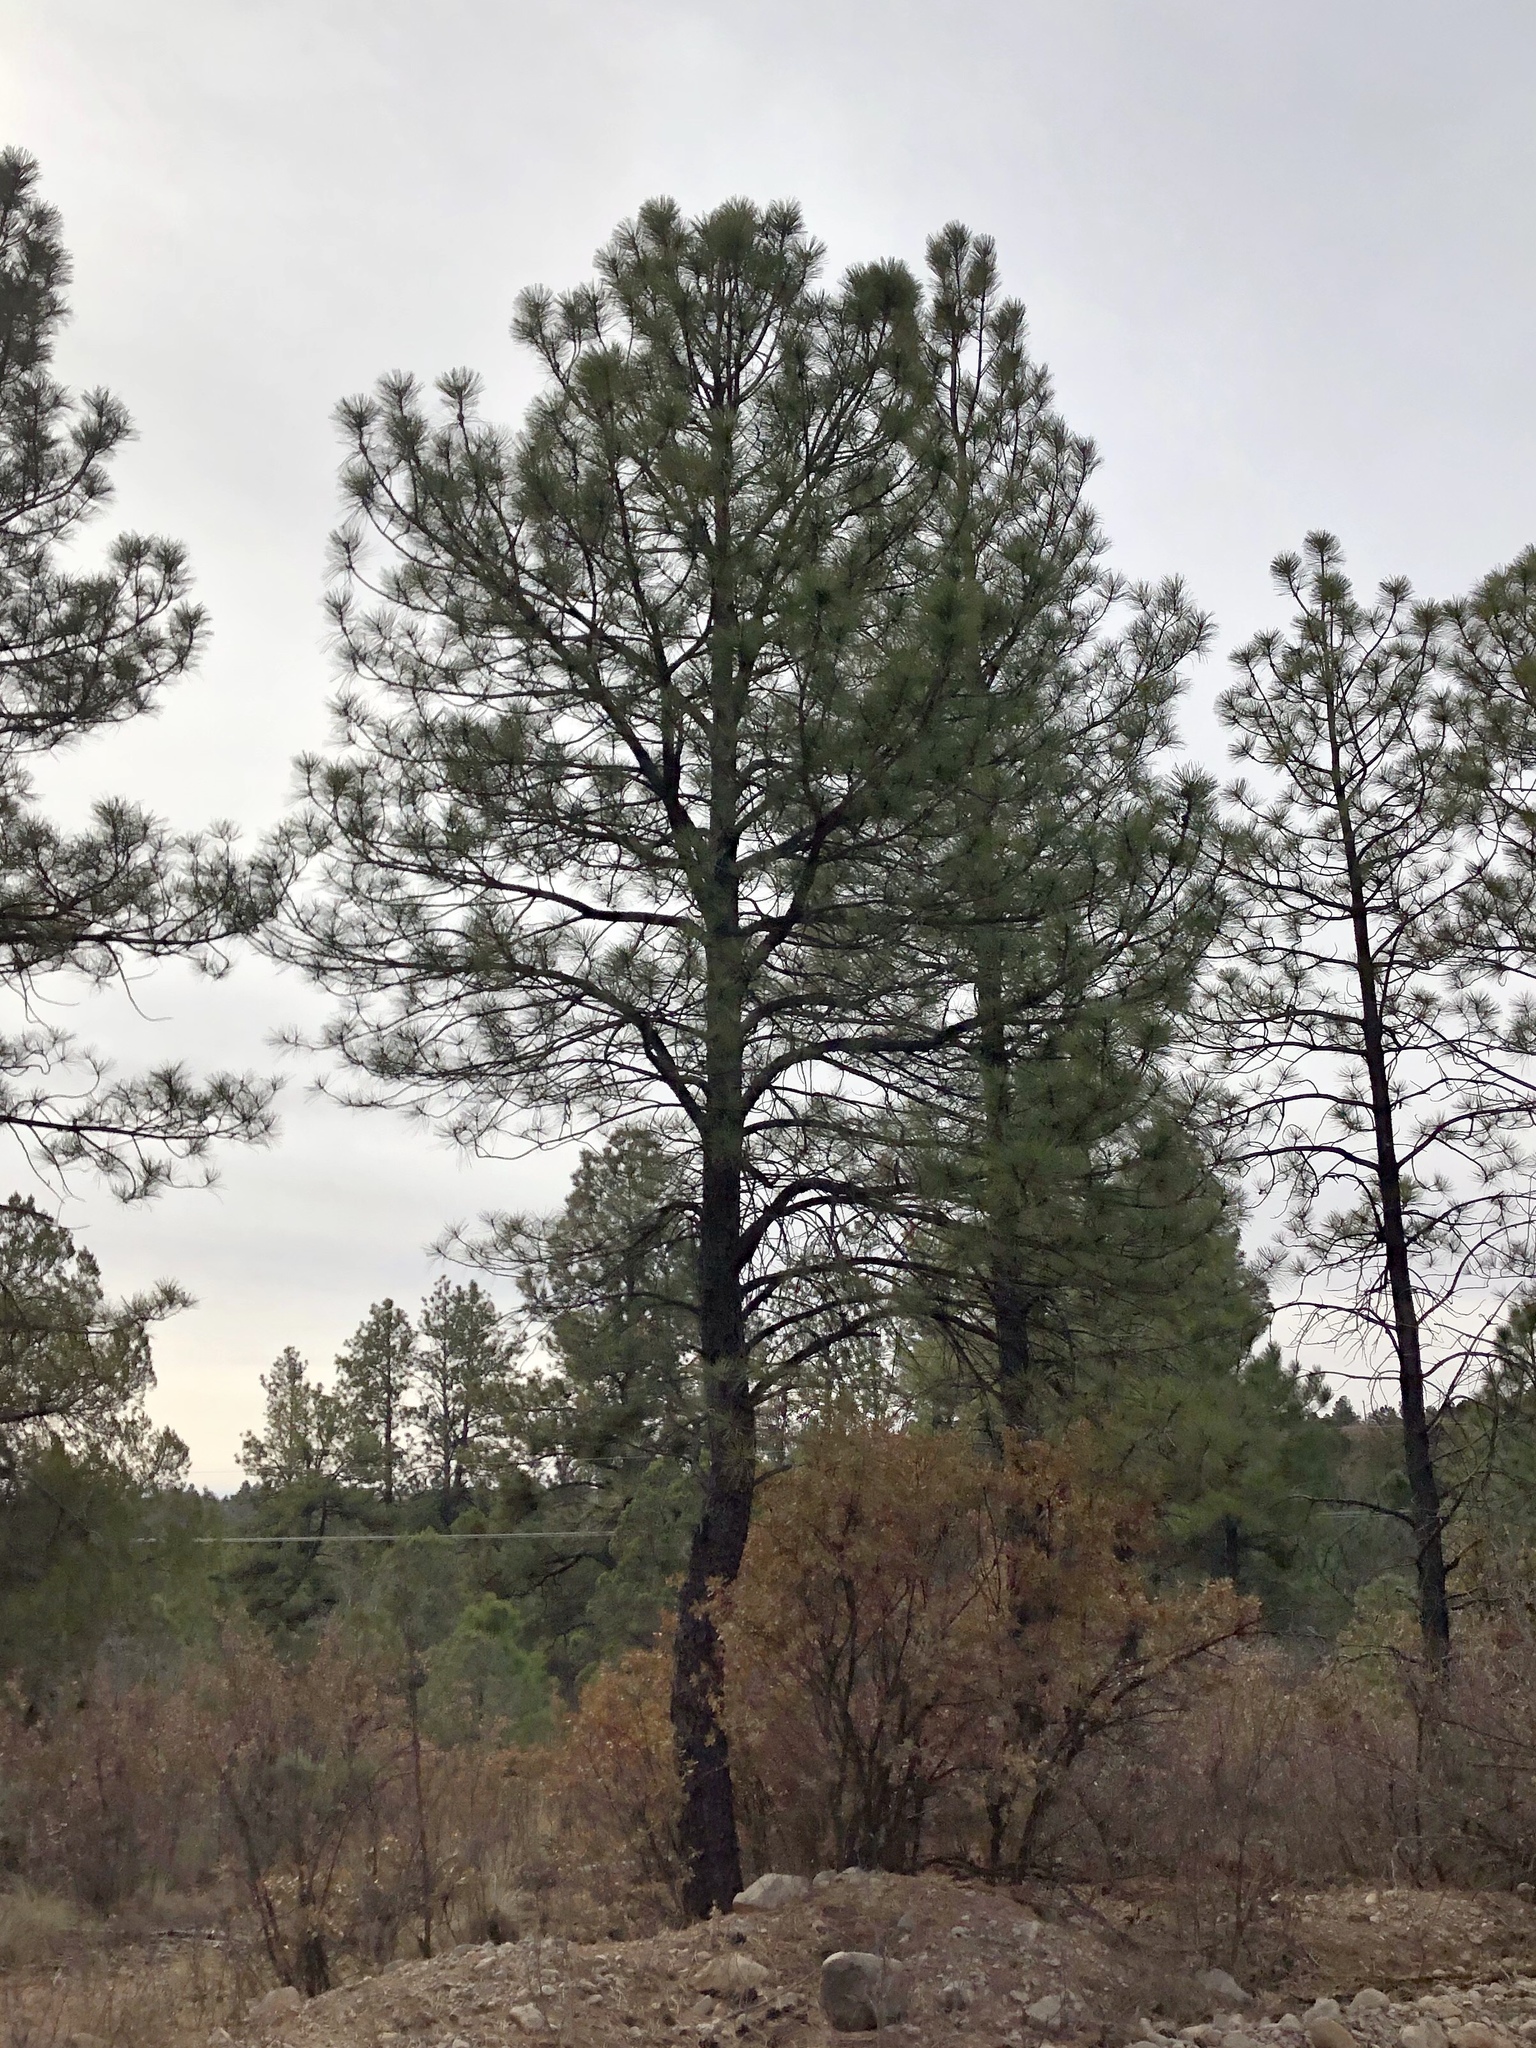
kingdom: Plantae
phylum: Tracheophyta
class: Pinopsida
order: Pinales
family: Pinaceae
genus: Pinus
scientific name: Pinus ponderosa
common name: Western yellow-pine
